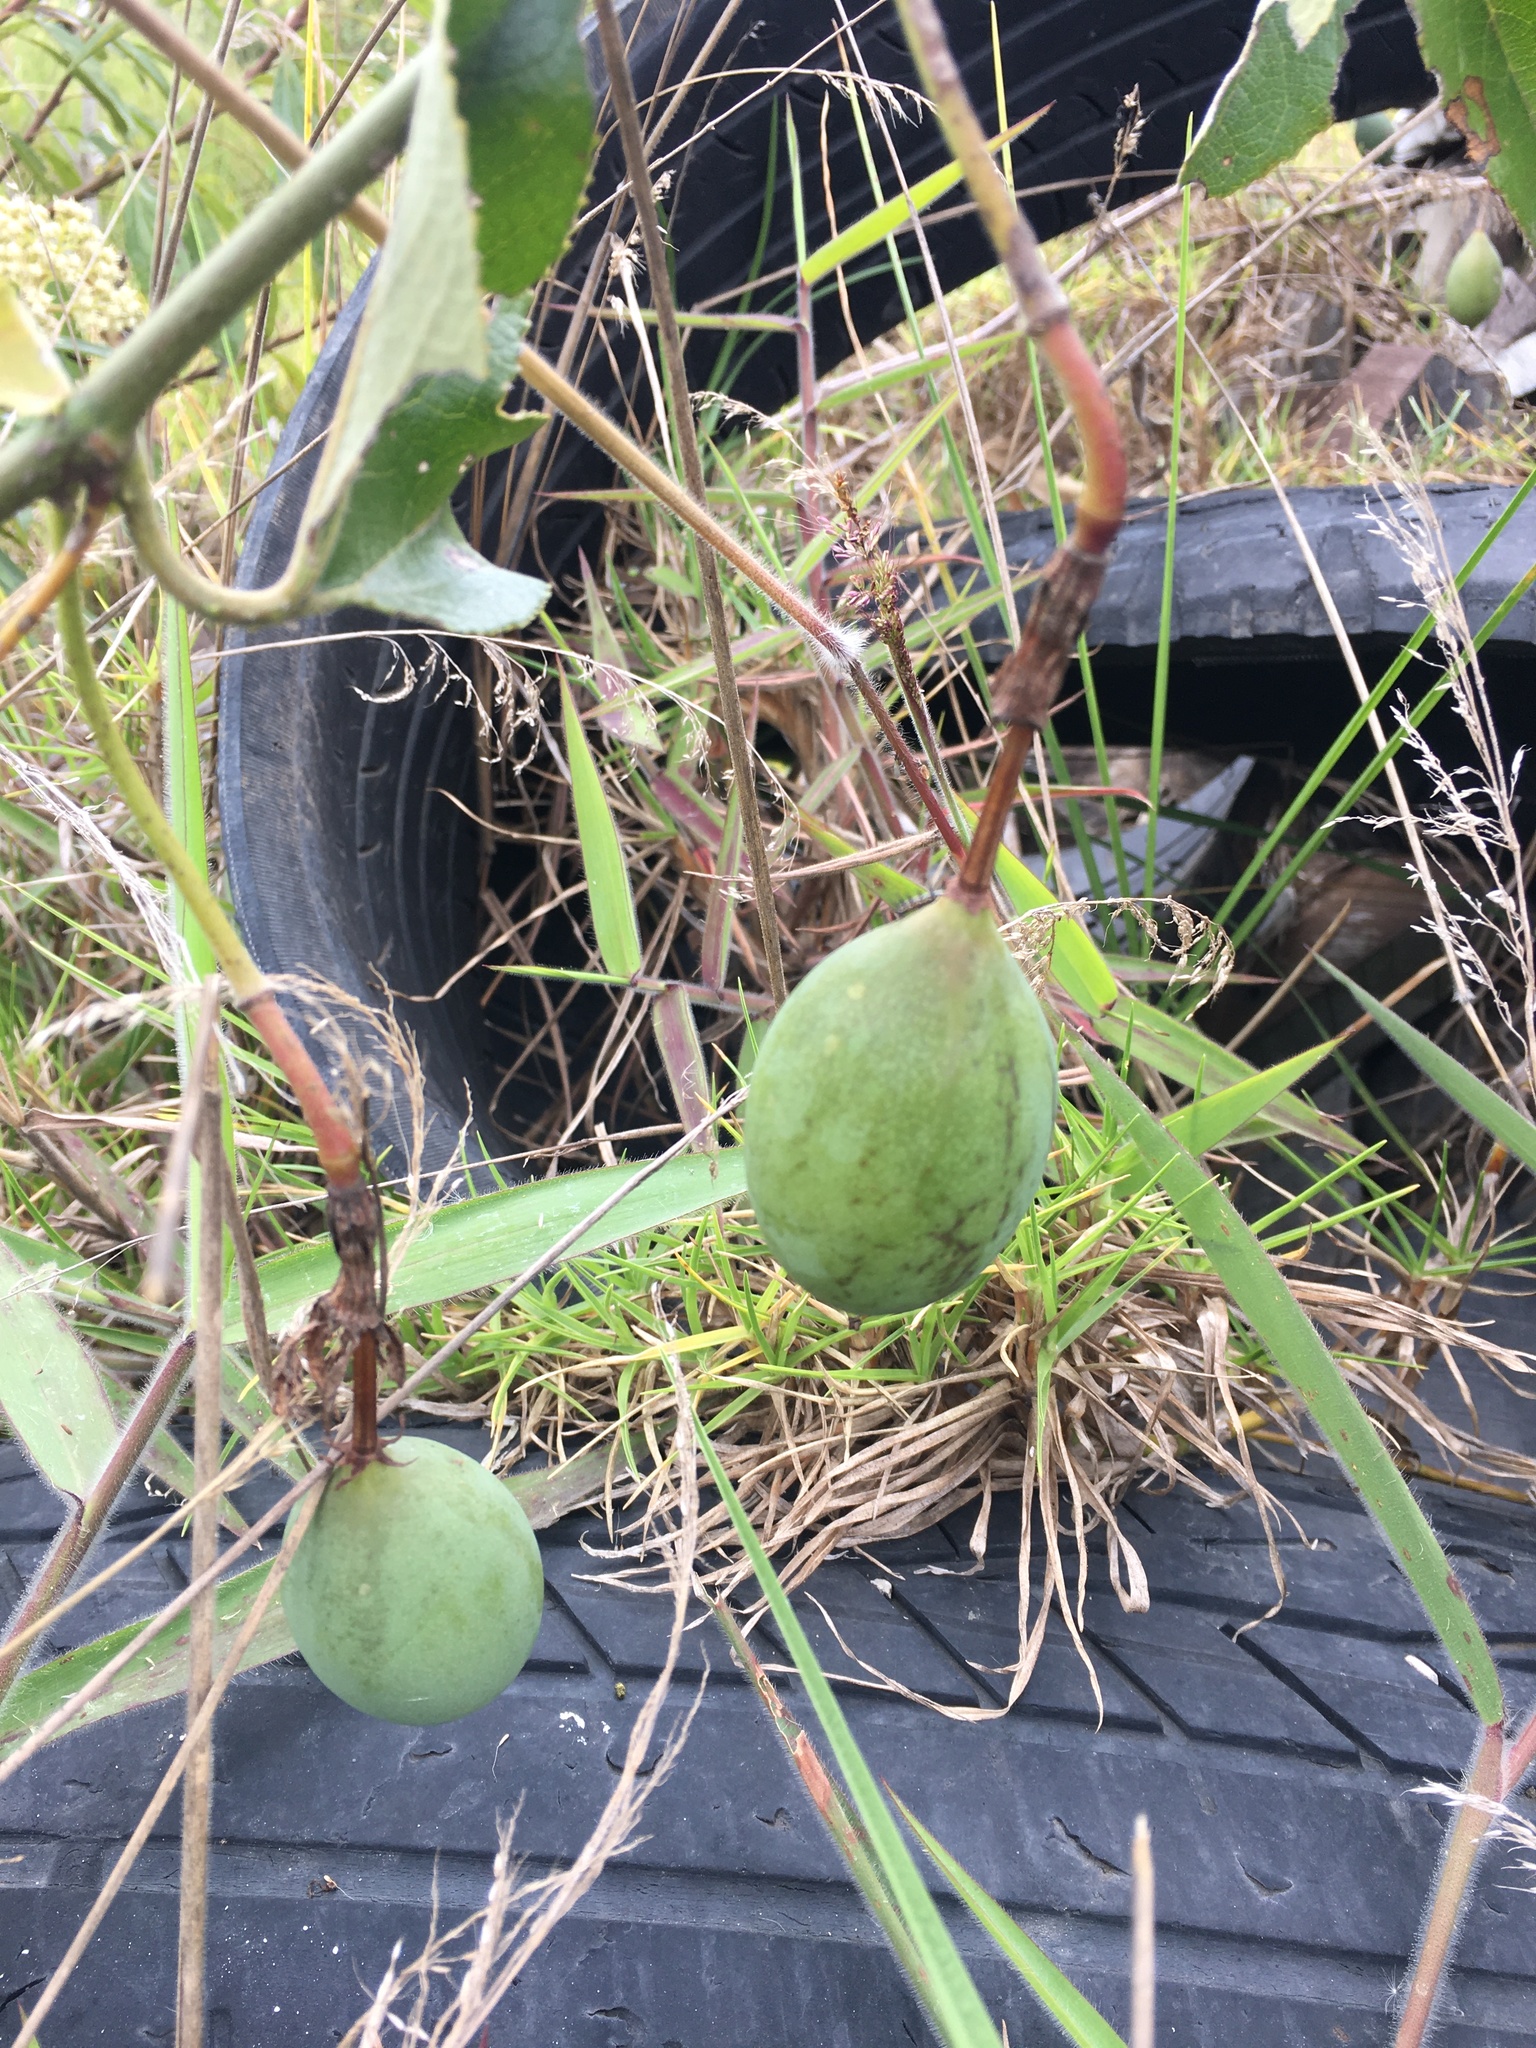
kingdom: Plantae
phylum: Tracheophyta
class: Magnoliopsida
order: Malpighiales
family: Passifloraceae
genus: Passiflora
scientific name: Passiflora manicata
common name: Red passionflower
